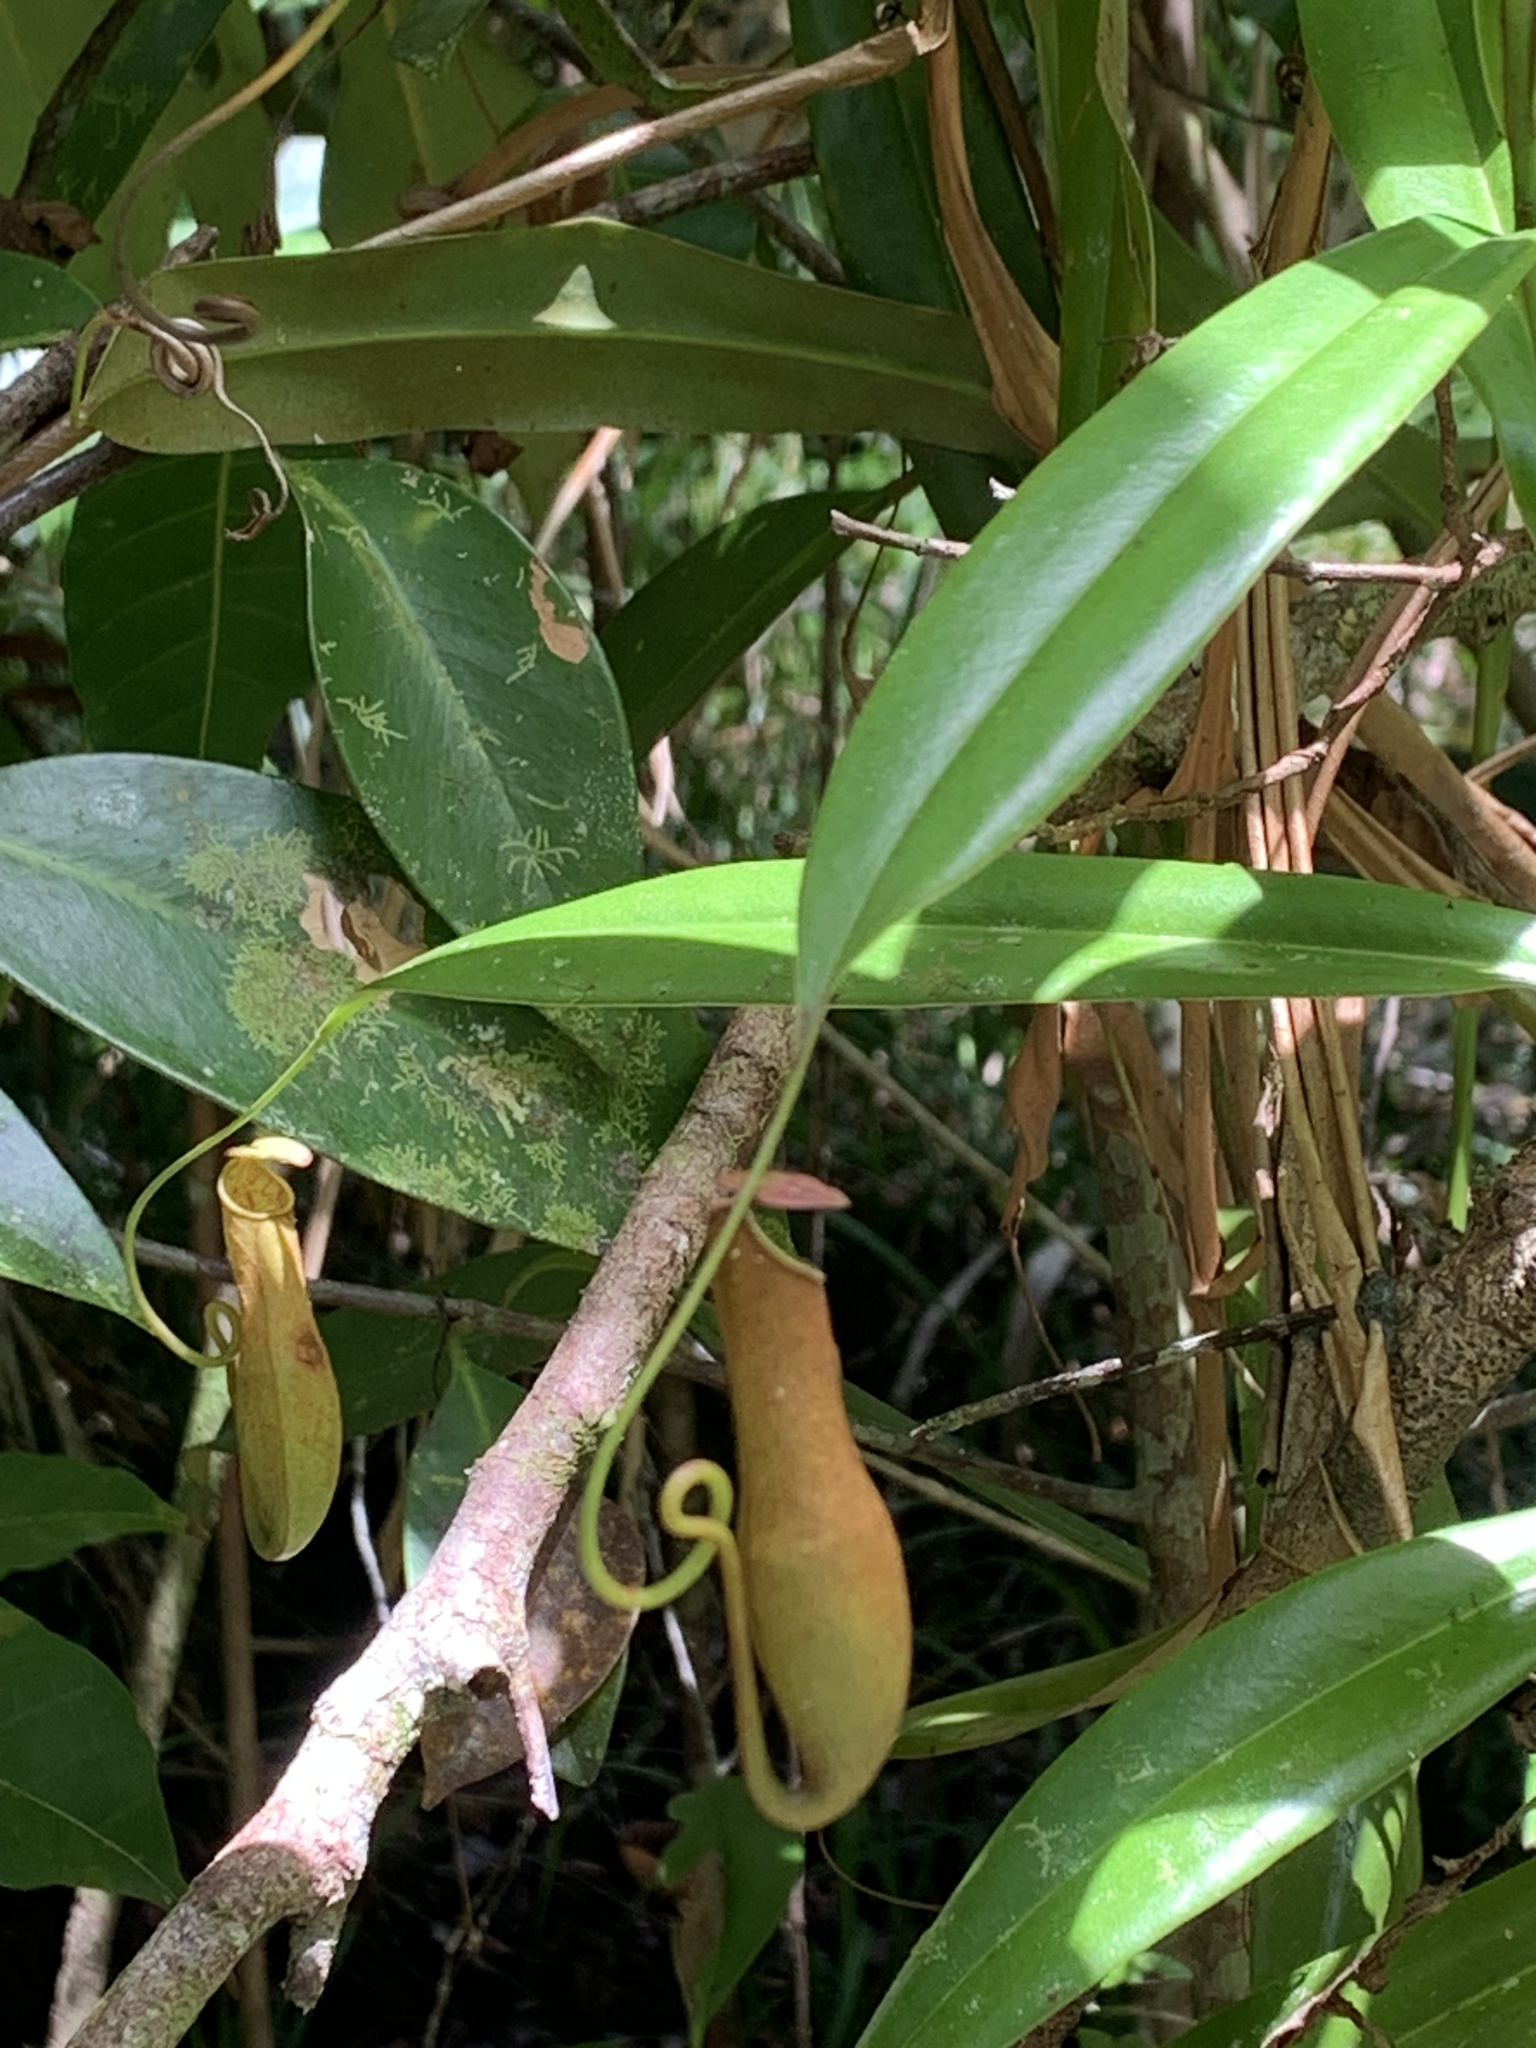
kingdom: Plantae
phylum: Tracheophyta
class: Magnoliopsida
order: Caryophyllales
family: Nepenthaceae
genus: Nepenthes
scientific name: Nepenthes gracilis
